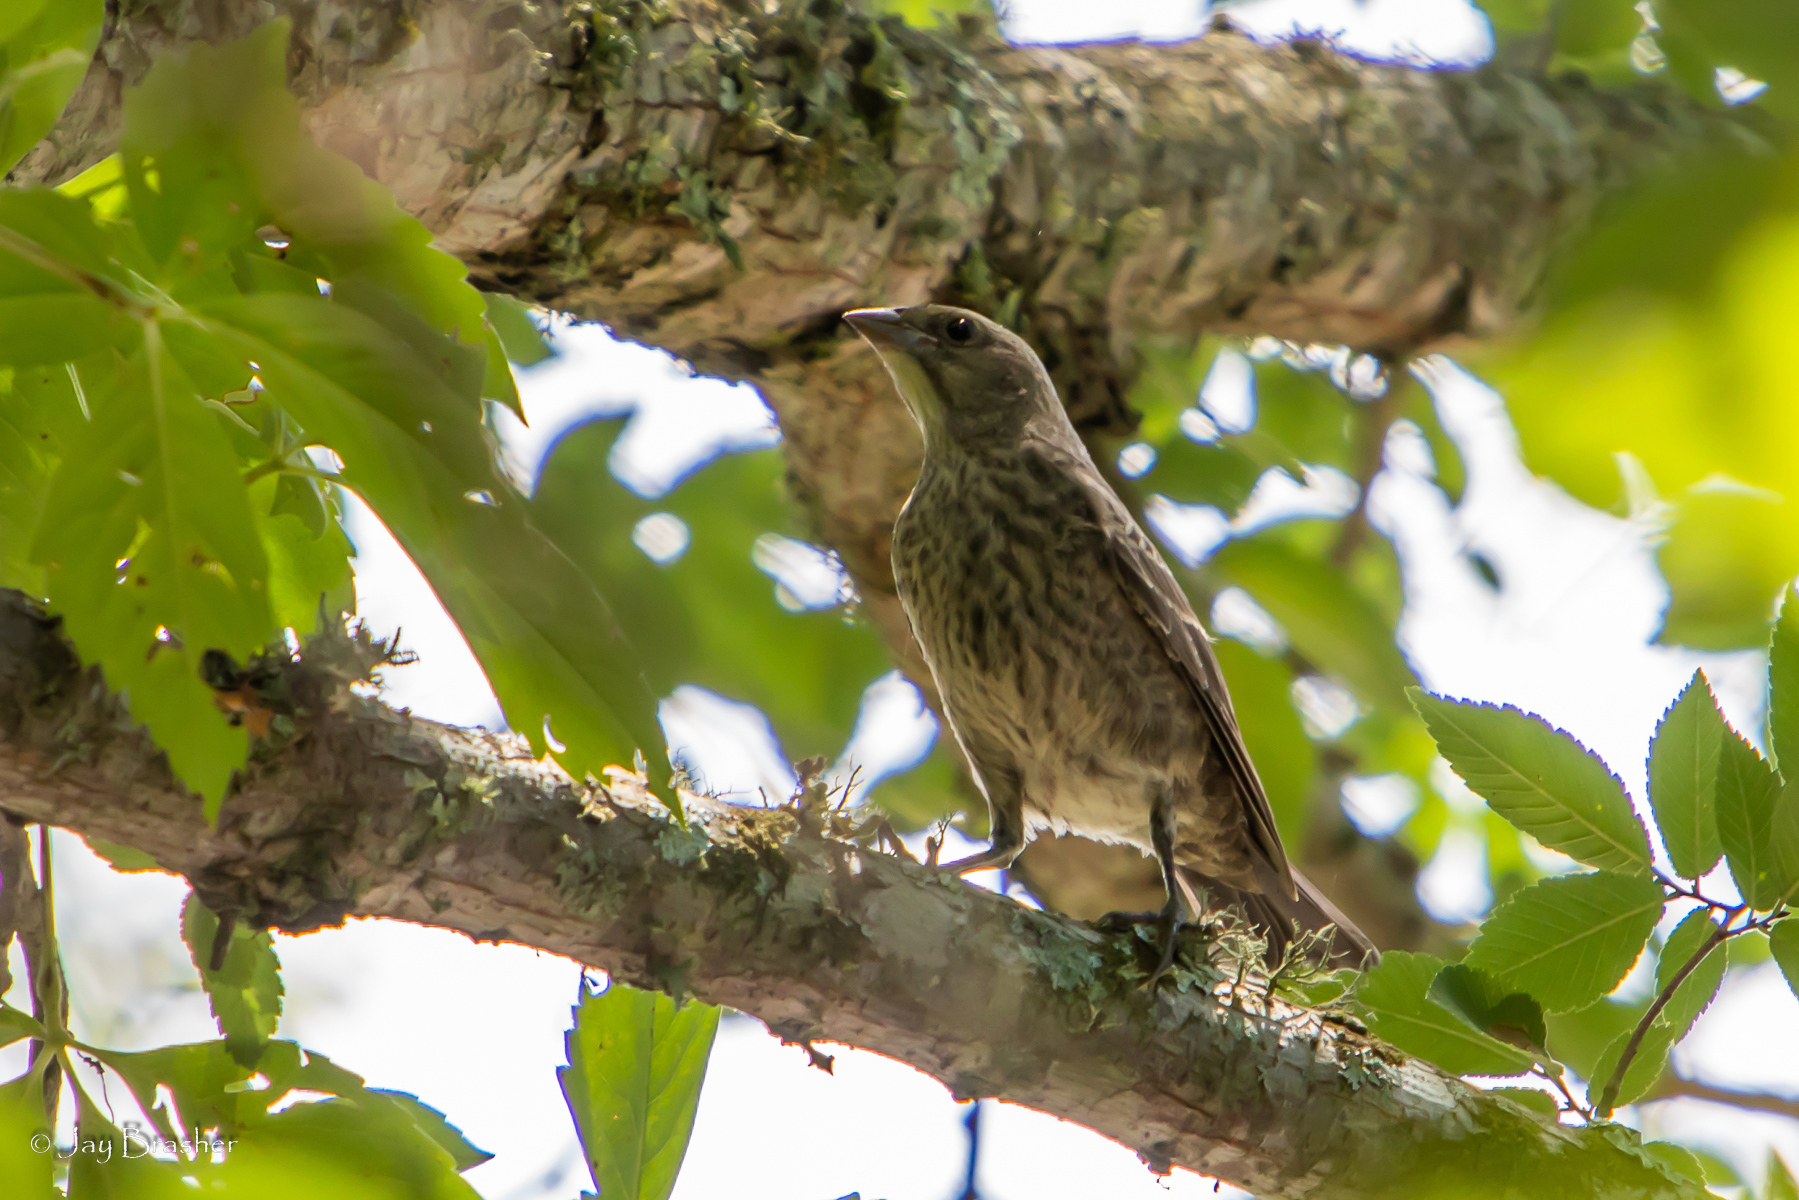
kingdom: Animalia
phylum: Chordata
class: Aves
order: Passeriformes
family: Icteridae
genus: Molothrus
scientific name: Molothrus ater
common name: Brown-headed cowbird
